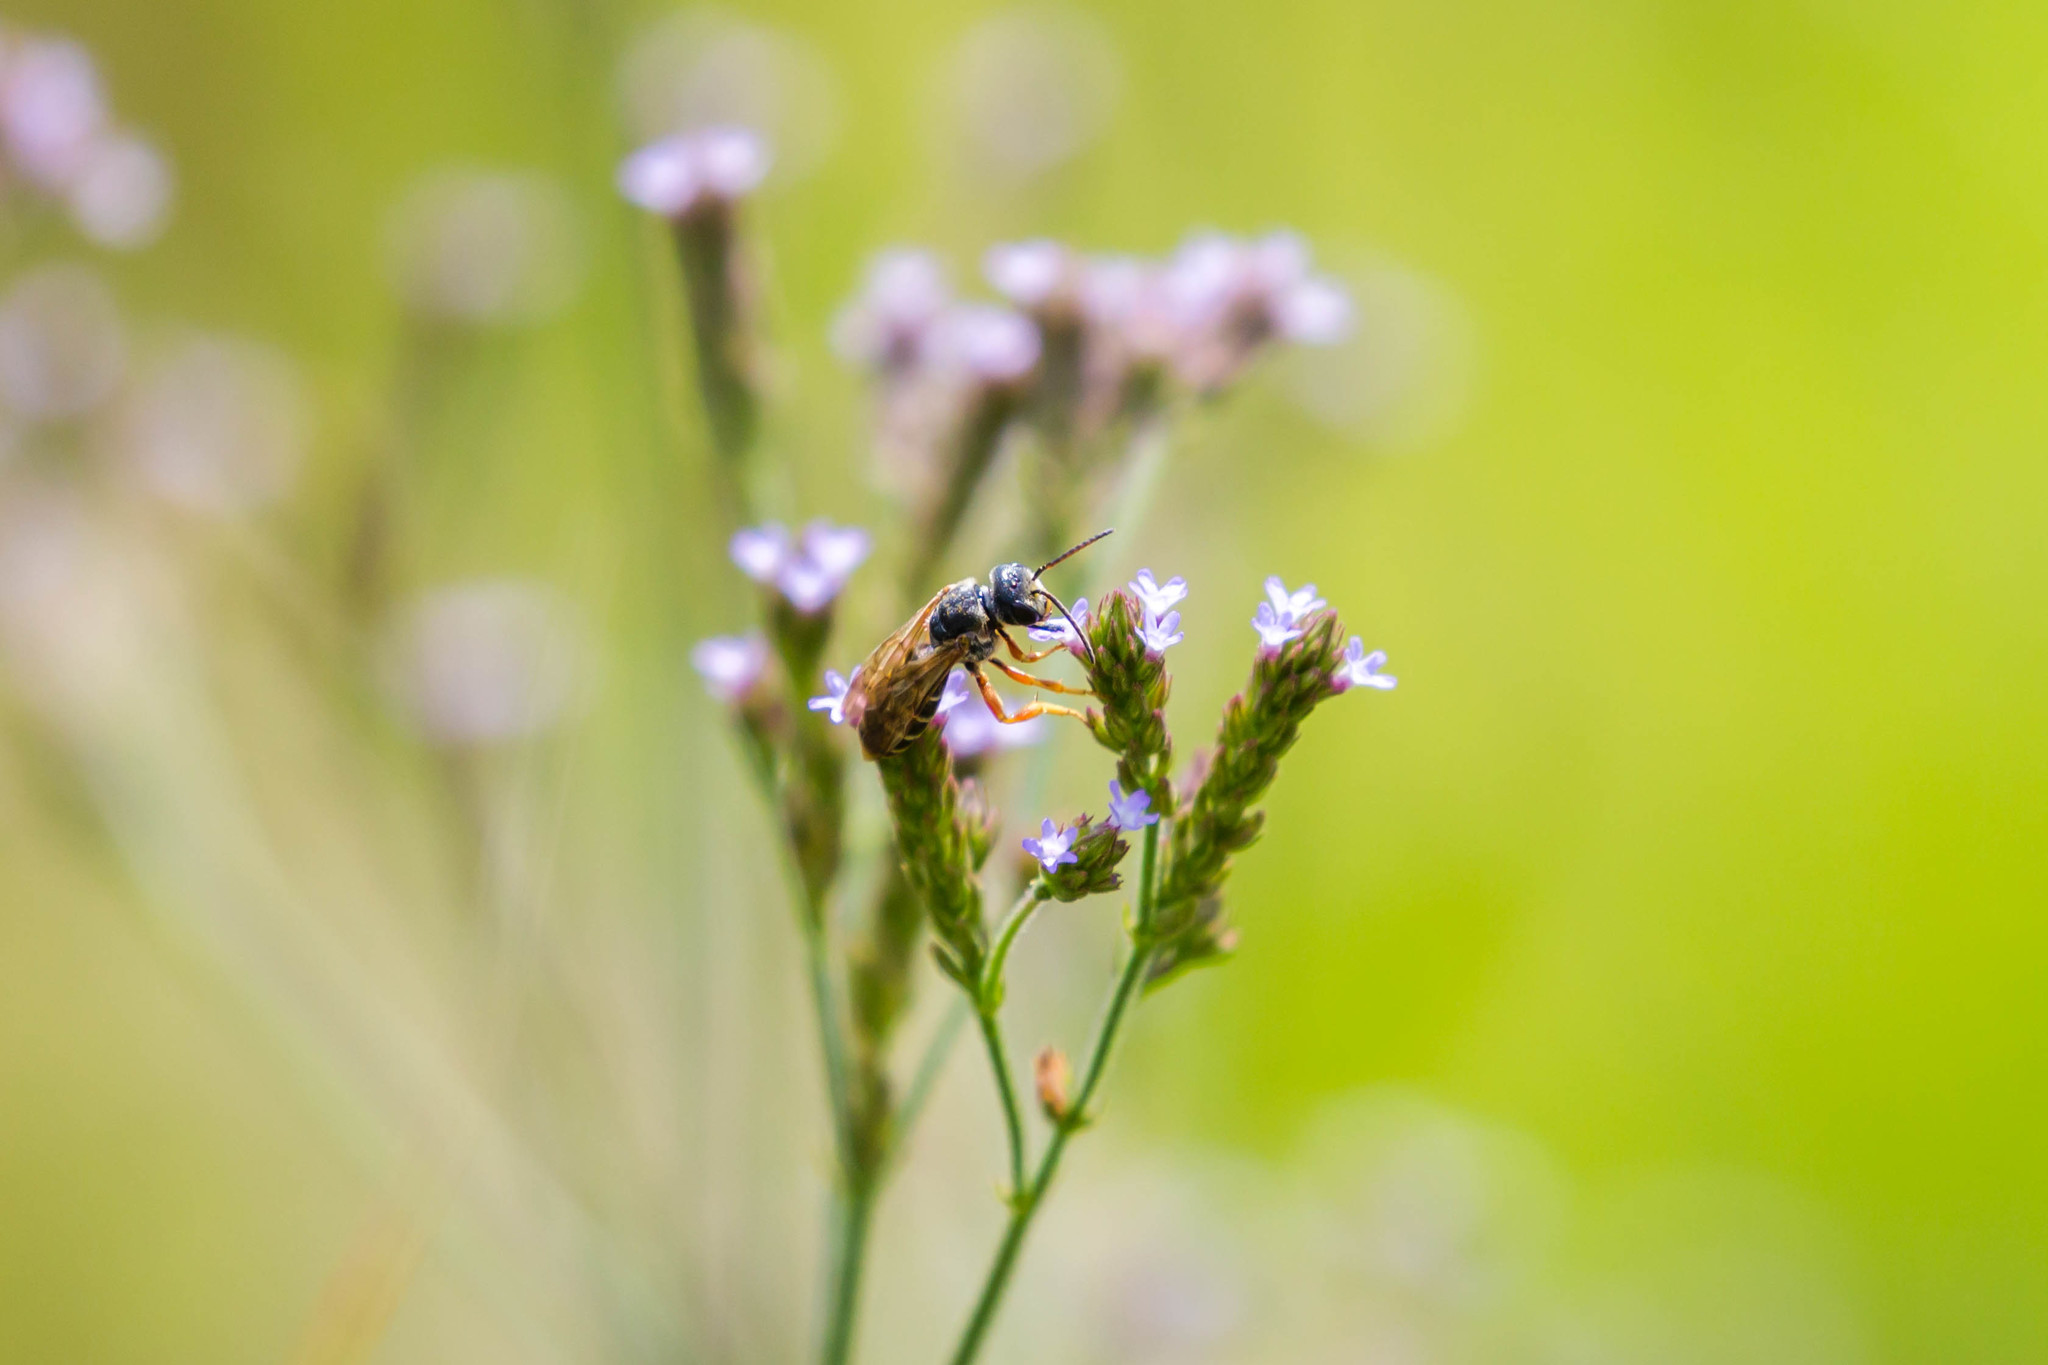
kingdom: Animalia
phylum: Arthropoda
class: Insecta
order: Hymenoptera
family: Halictidae
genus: Halictus
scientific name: Halictus parallelus
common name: Parallel-striped sweat bee
